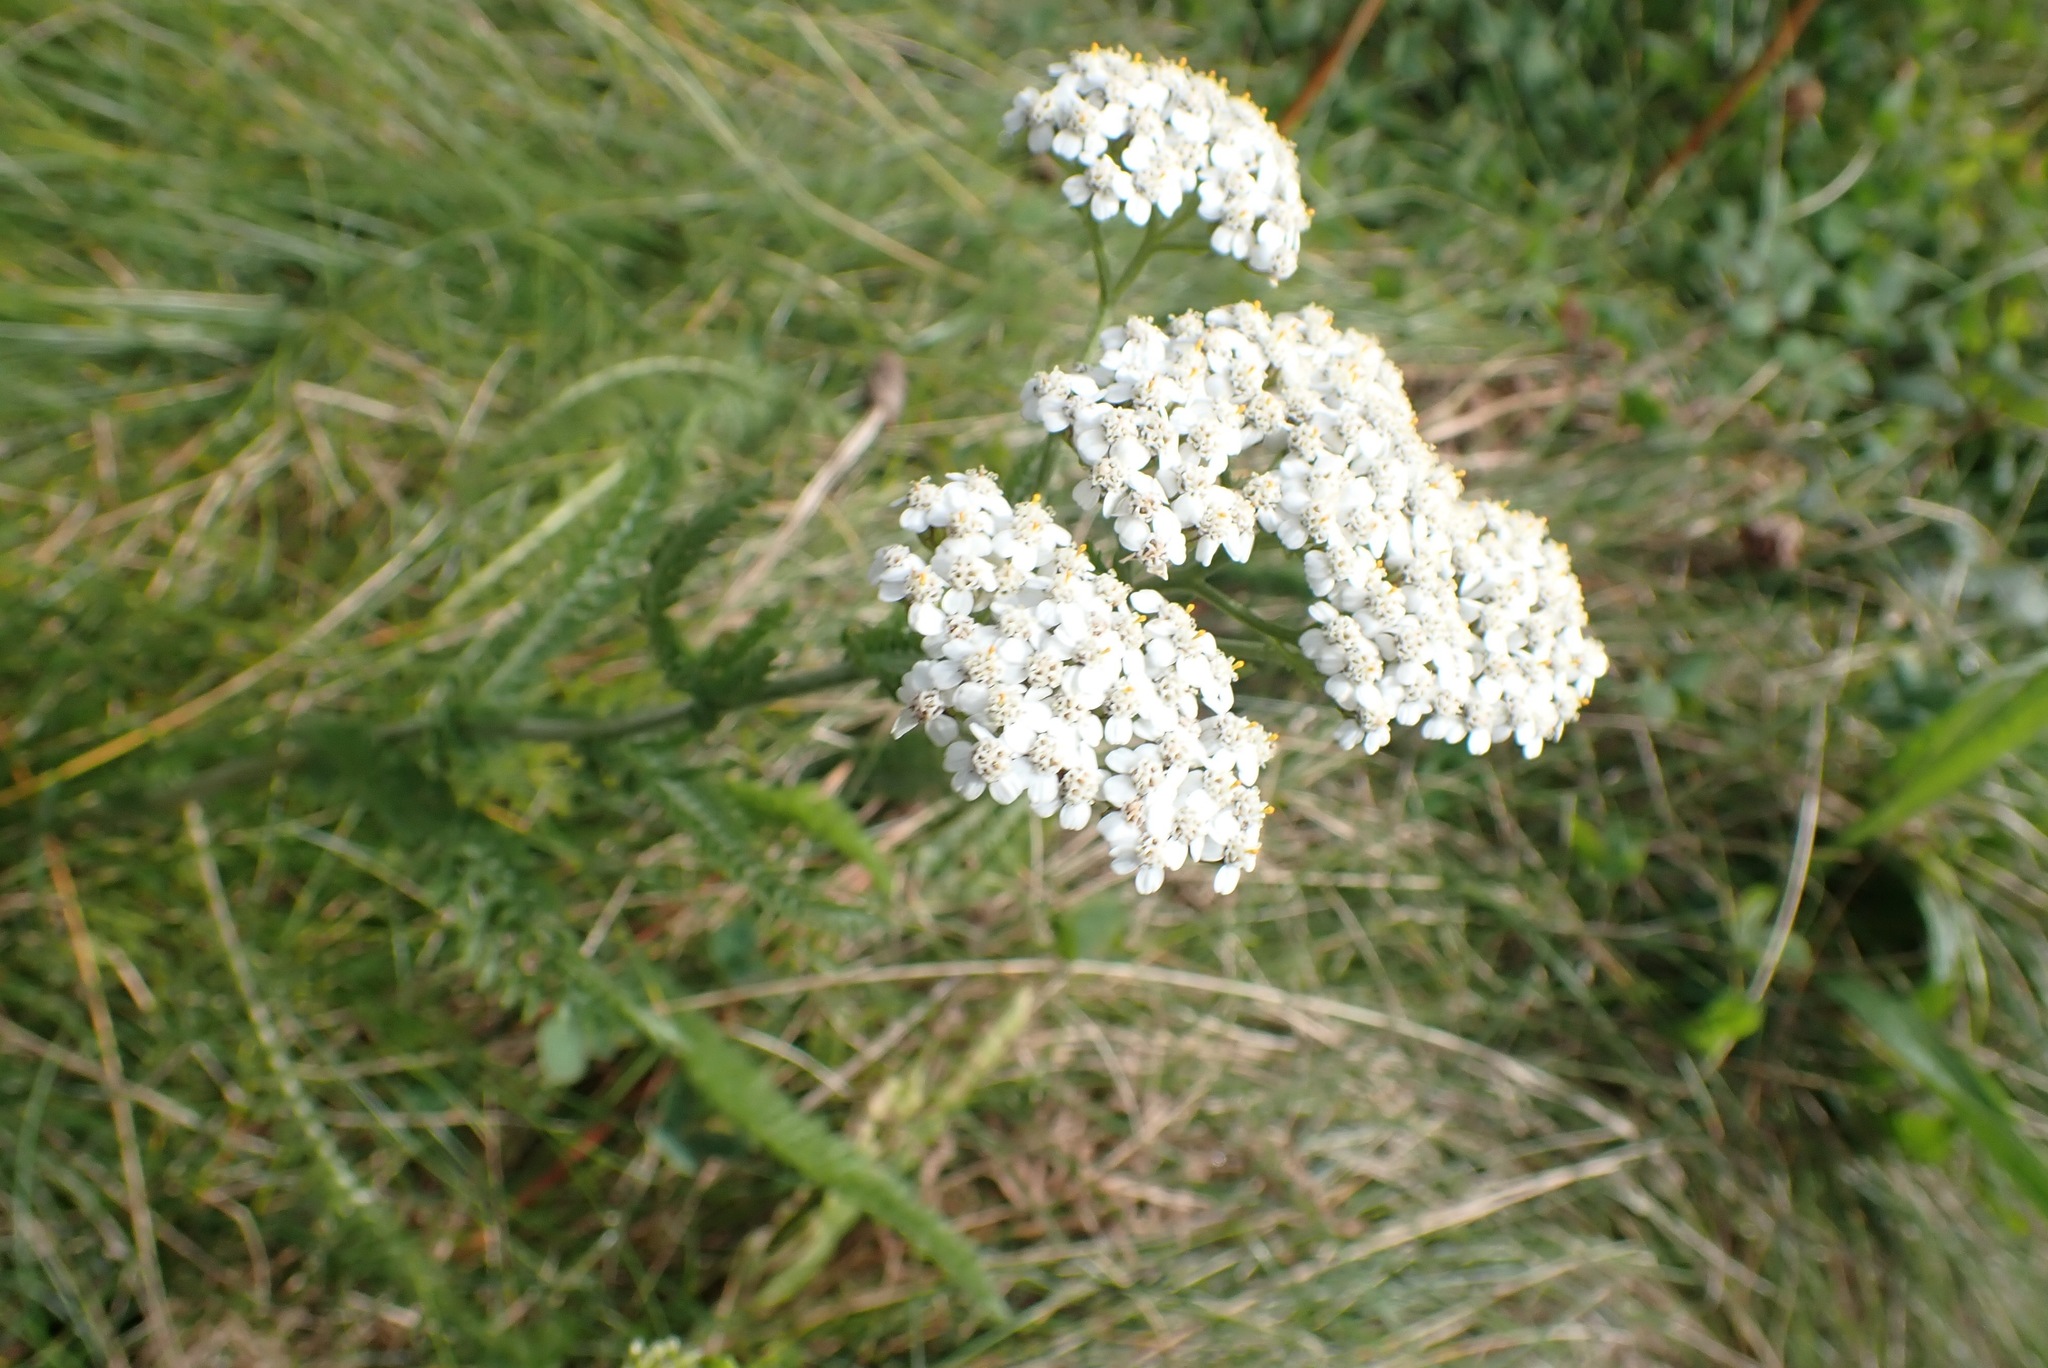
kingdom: Plantae
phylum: Tracheophyta
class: Magnoliopsida
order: Asterales
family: Asteraceae
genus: Achillea
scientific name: Achillea millefolium
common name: Yarrow
